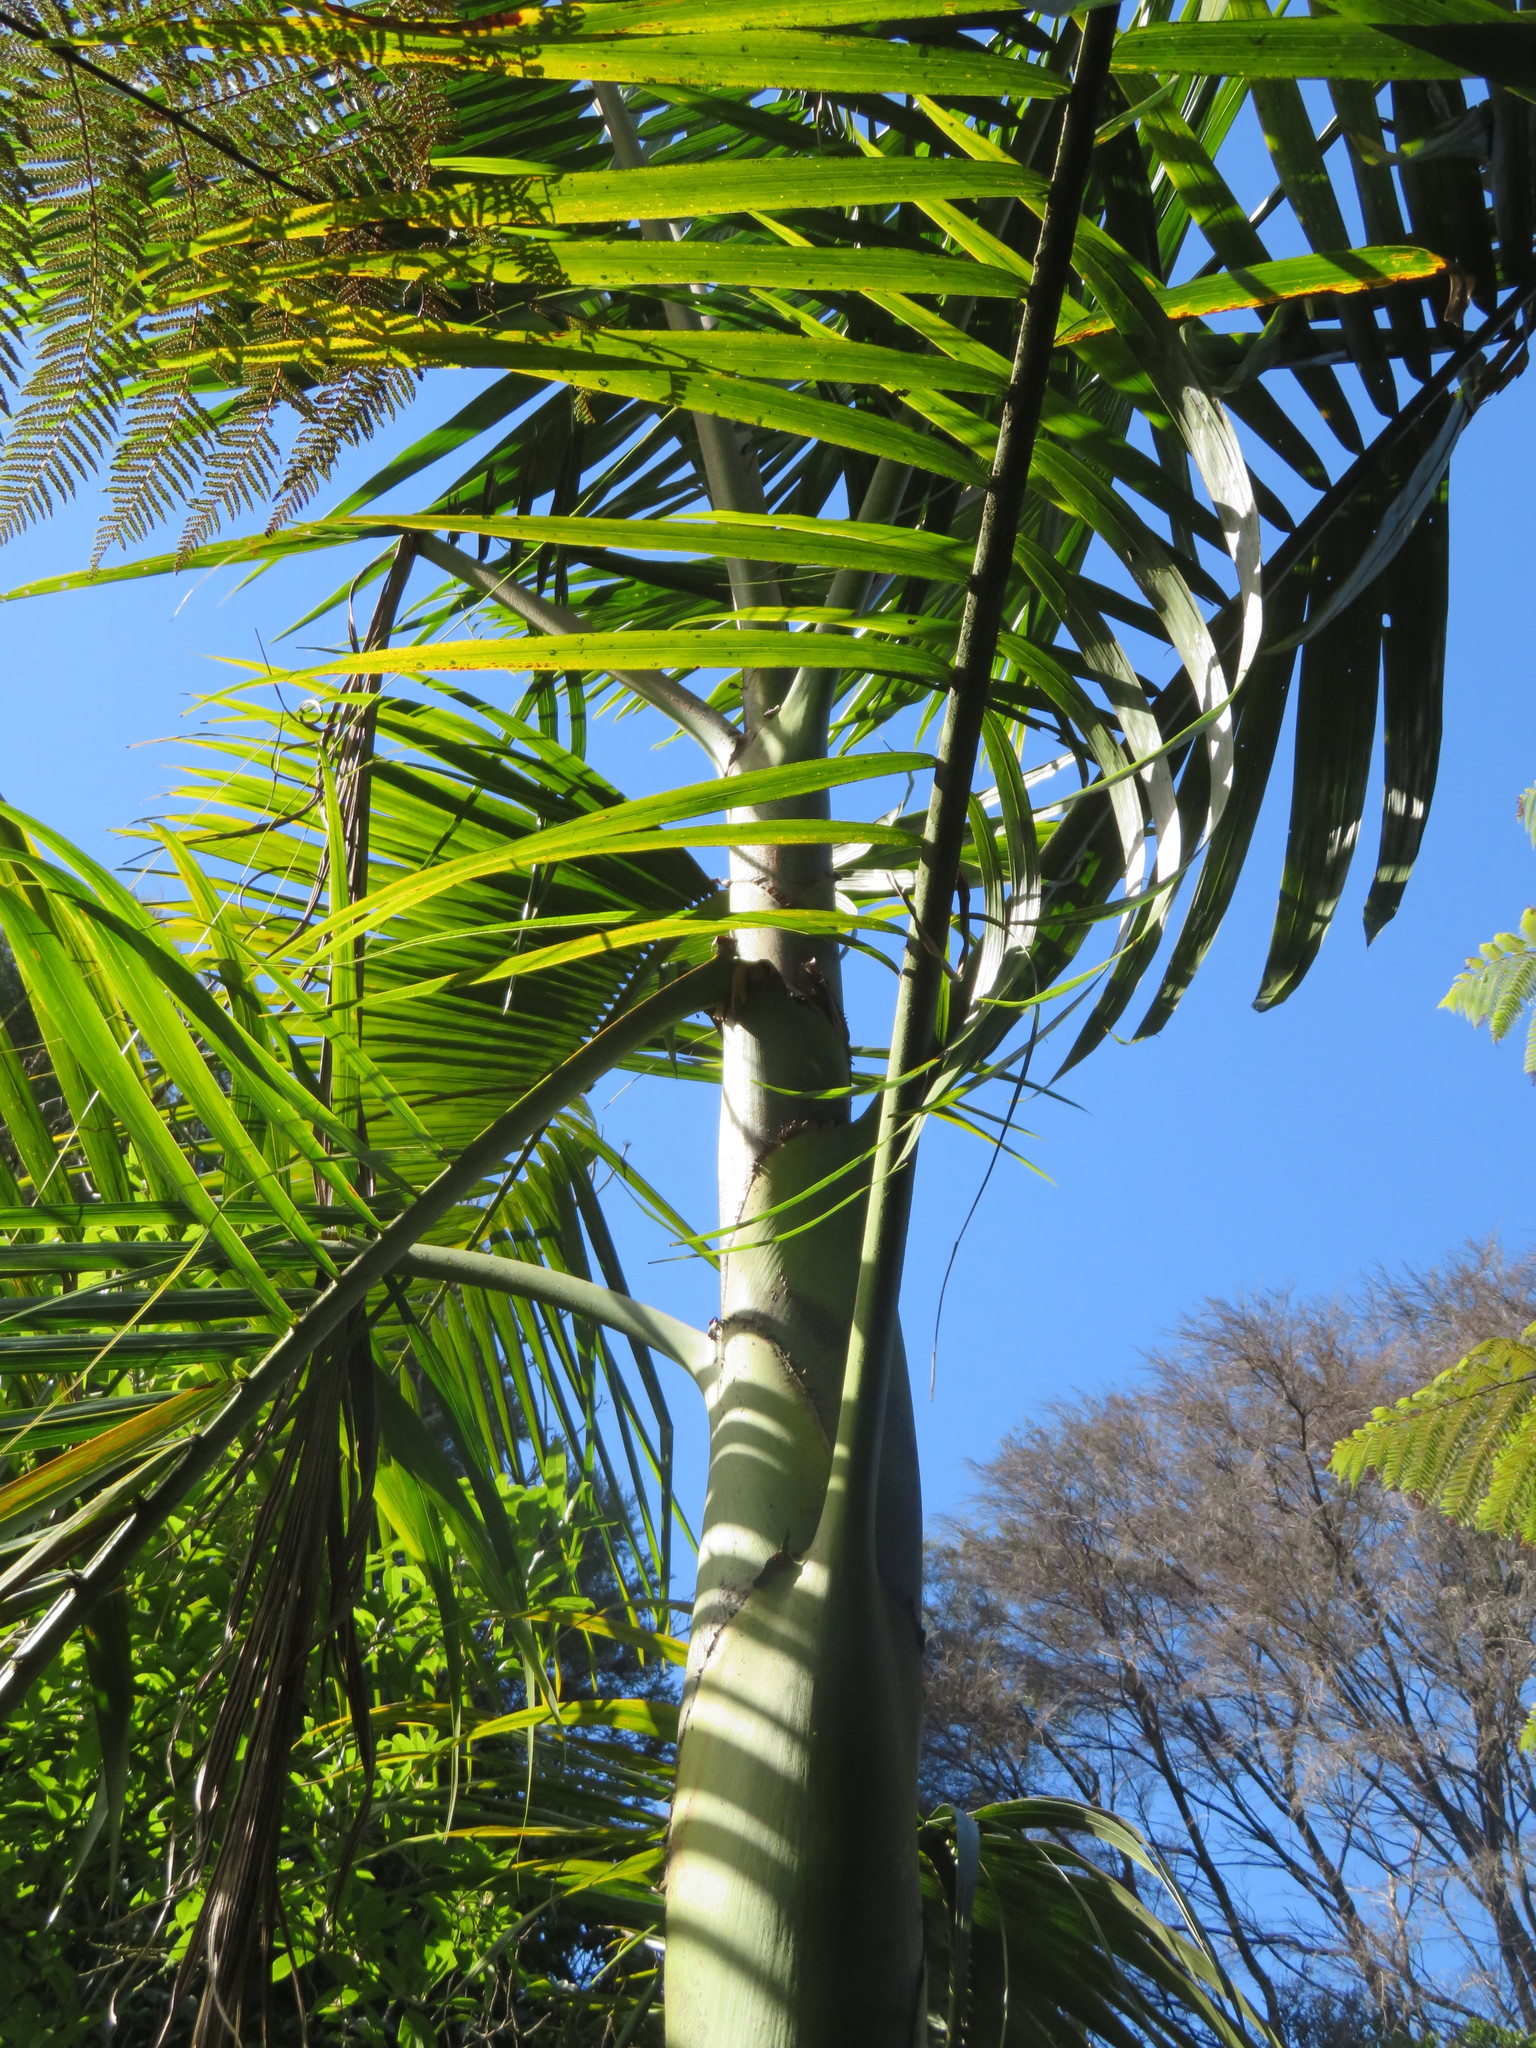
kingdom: Plantae
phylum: Tracheophyta
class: Liliopsida
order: Arecales
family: Arecaceae
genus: Archontophoenix
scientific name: Archontophoenix cunninghamiana
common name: Piccabeen bangalow palm
